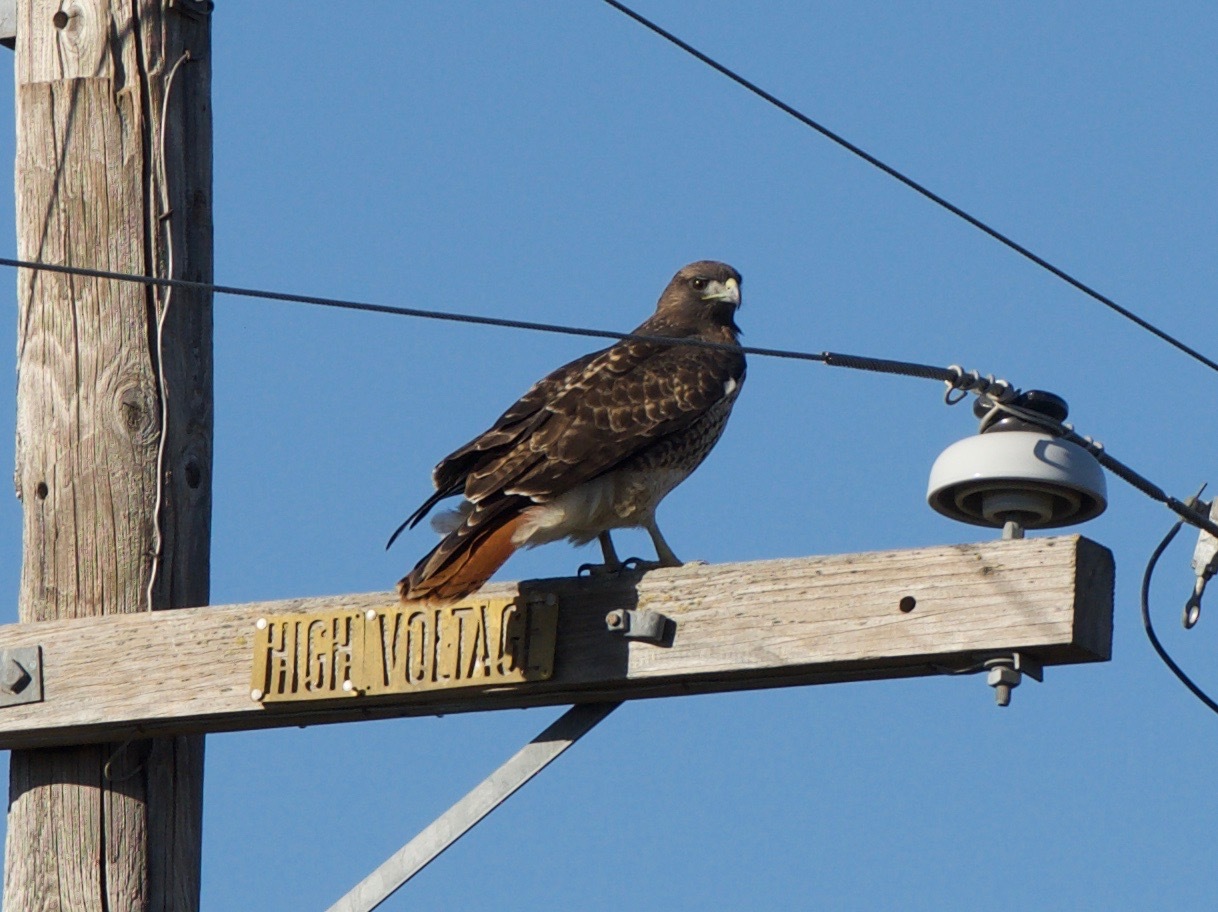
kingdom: Animalia
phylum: Chordata
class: Aves
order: Accipitriformes
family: Accipitridae
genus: Buteo
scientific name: Buteo jamaicensis
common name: Red-tailed hawk
